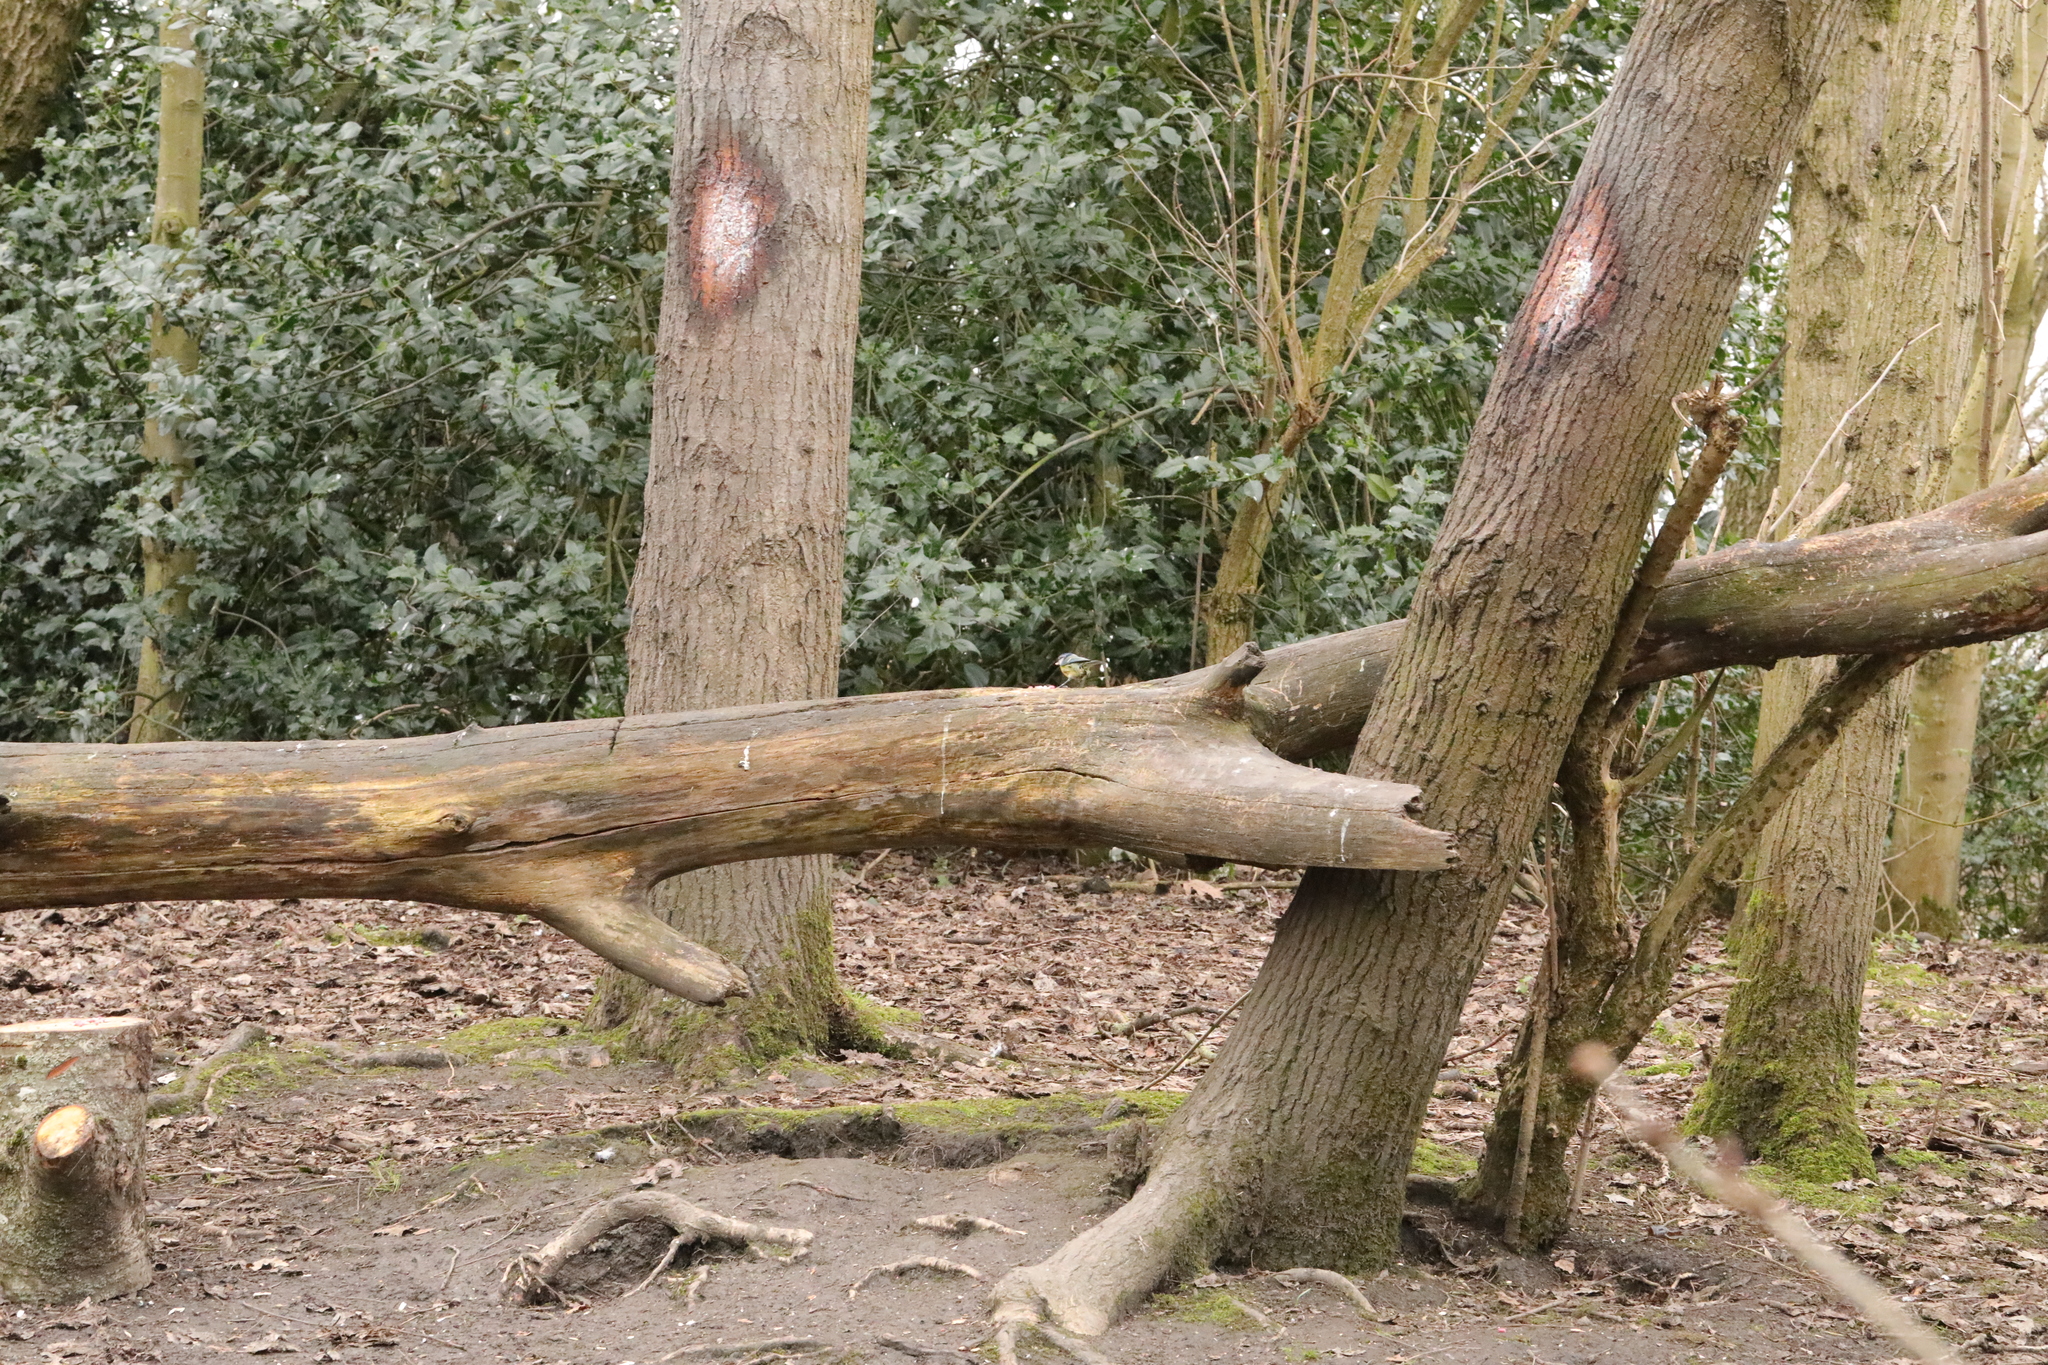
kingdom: Animalia
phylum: Chordata
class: Aves
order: Passeriformes
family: Paridae
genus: Parus
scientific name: Parus major
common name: Great tit
